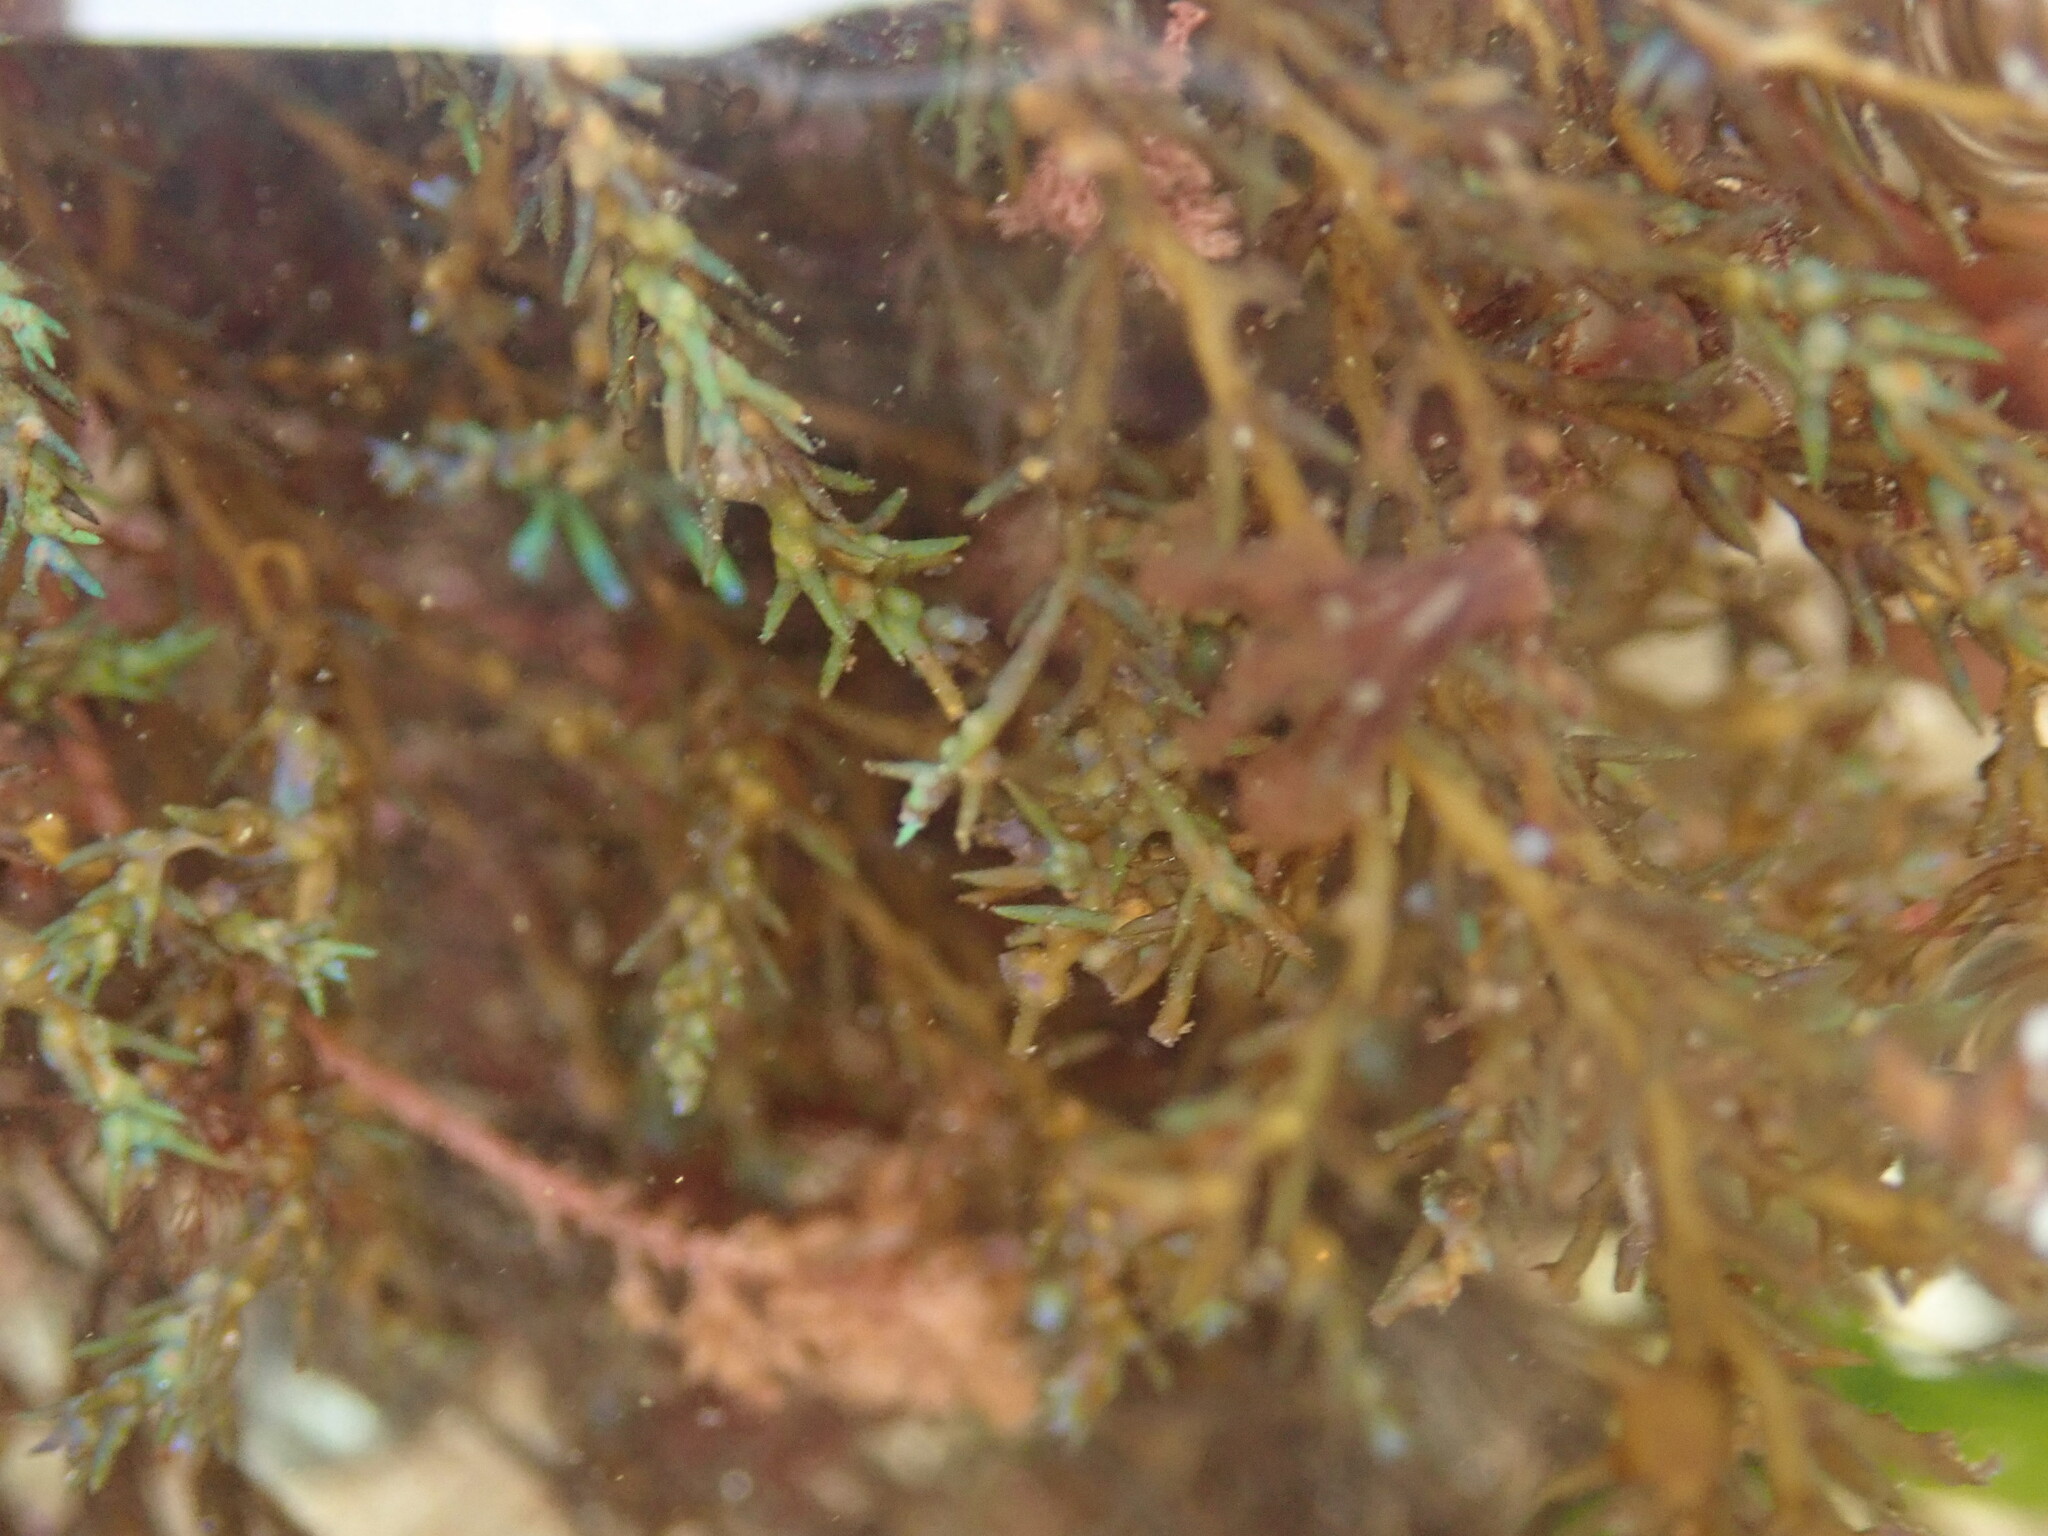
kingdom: Chromista
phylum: Ochrophyta
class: Phaeophyceae
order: Fucales
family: Sargassaceae
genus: Cystoseira
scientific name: Cystoseira Ericaria selaginoides
